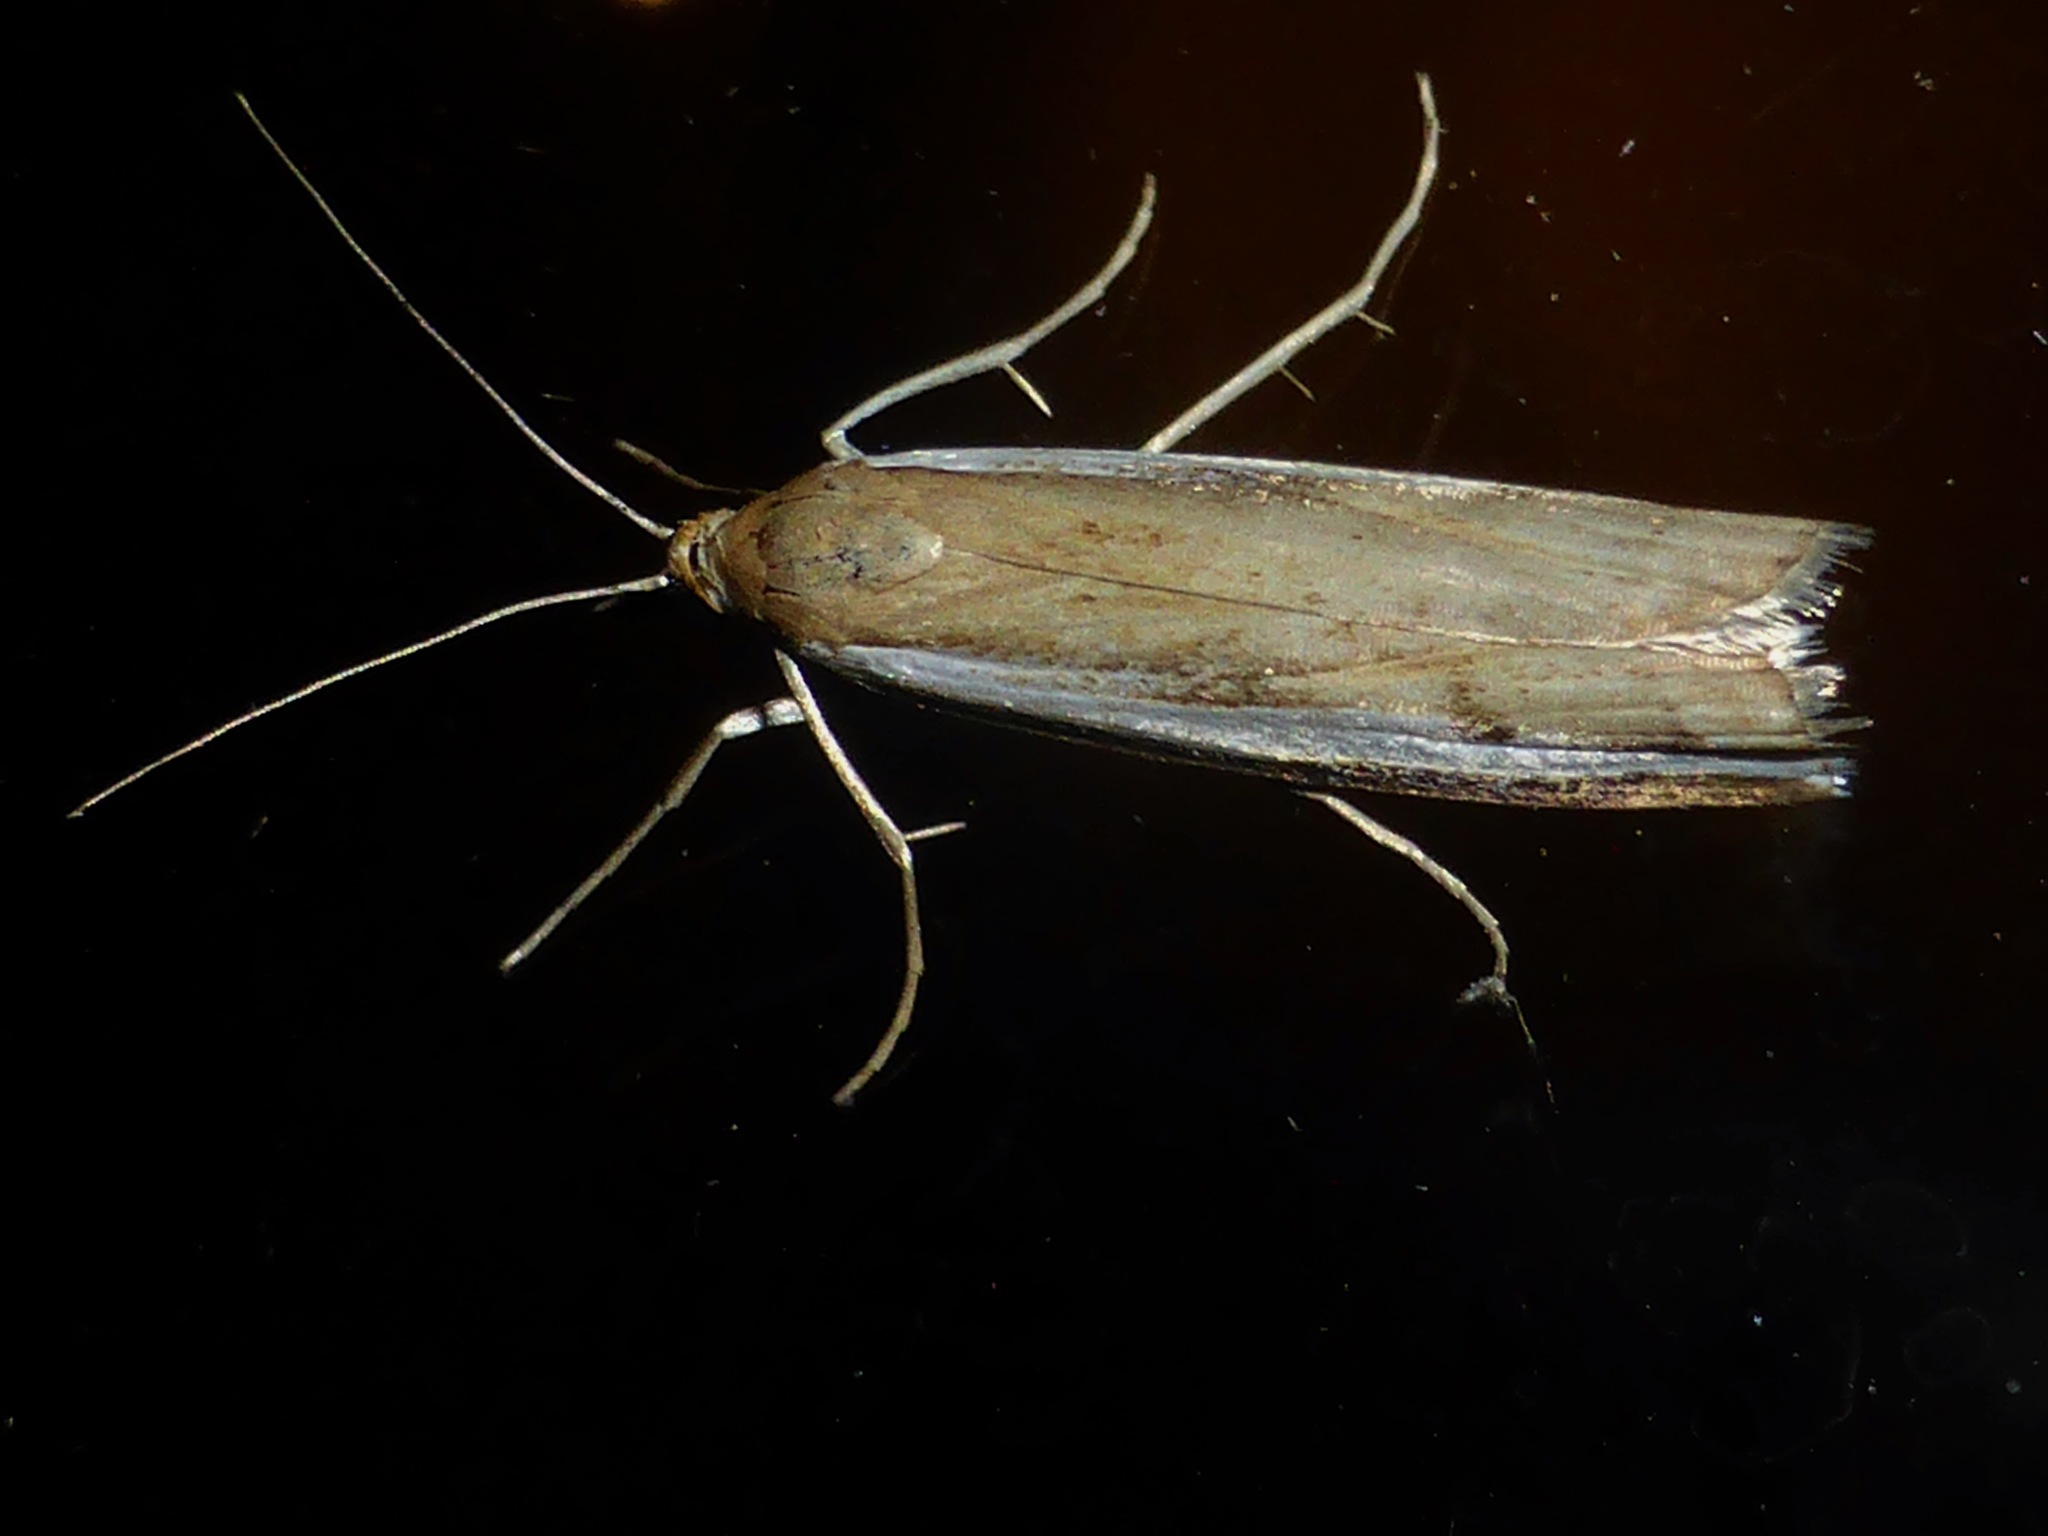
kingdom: Animalia
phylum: Arthropoda
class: Insecta
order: Lepidoptera
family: Crambidae
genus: Orocrambus
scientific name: Orocrambus flexuosellus
